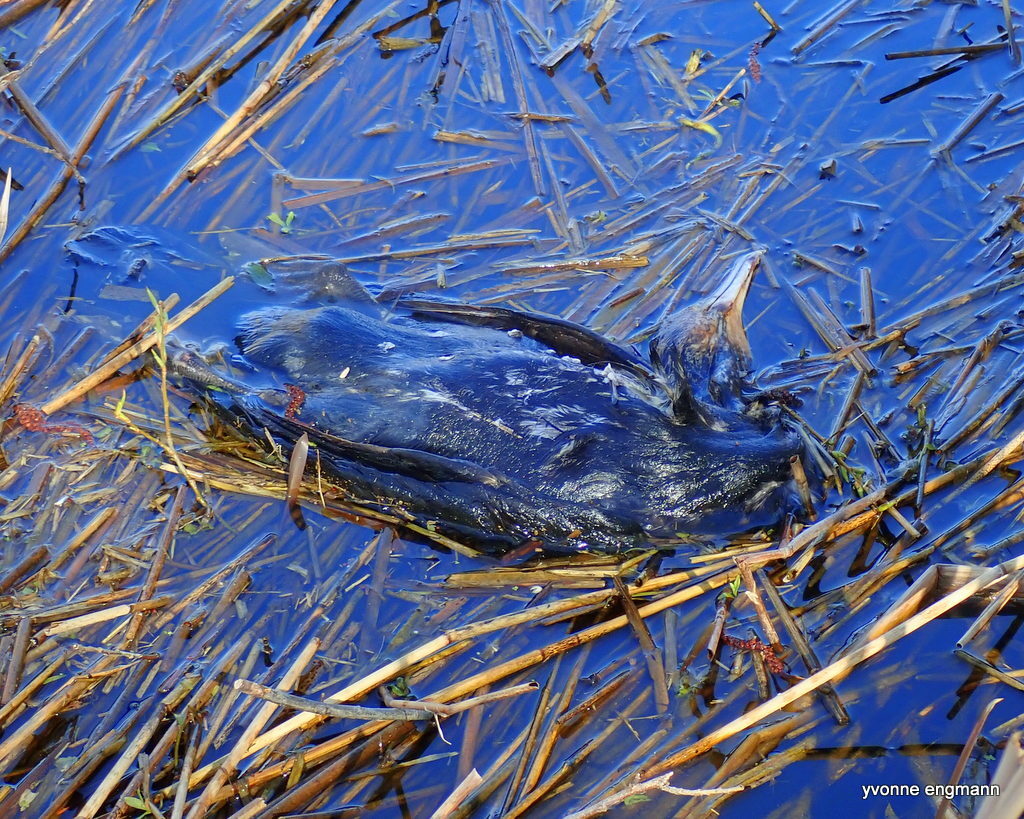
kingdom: Animalia
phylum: Chordata
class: Aves
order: Suliformes
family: Phalacrocoracidae
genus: Phalacrocorax
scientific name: Phalacrocorax carbo
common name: Great cormorant
